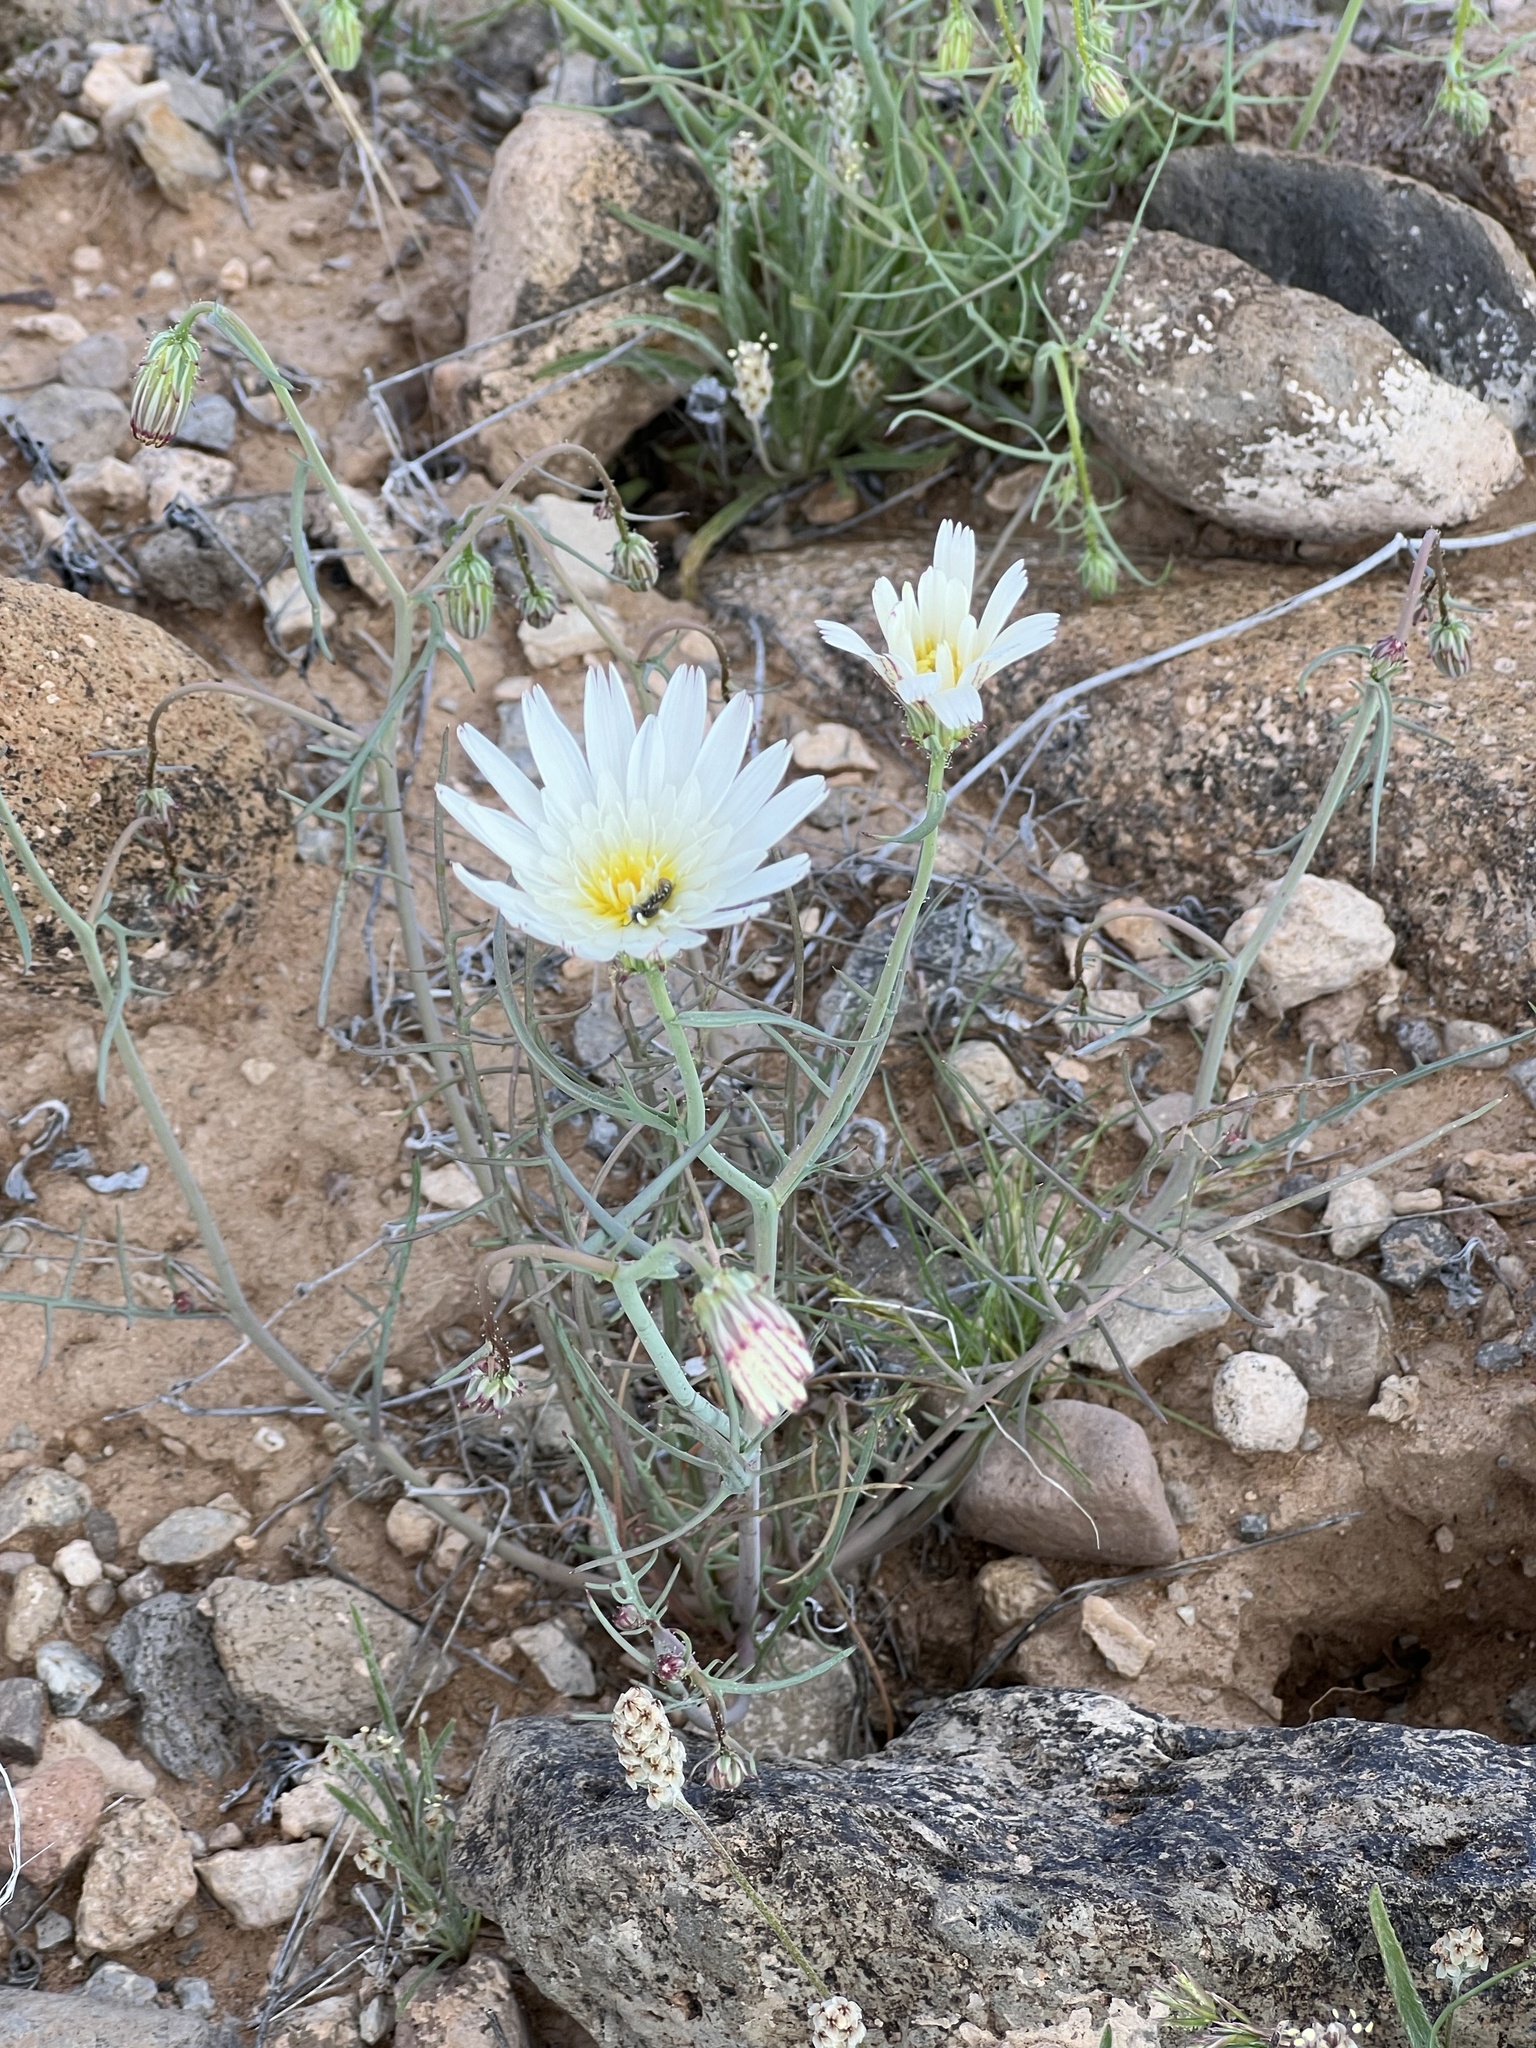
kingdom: Plantae
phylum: Tracheophyta
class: Magnoliopsida
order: Asterales
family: Asteraceae
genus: Calycoseris
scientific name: Calycoseris wrightii
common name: White tackstem
